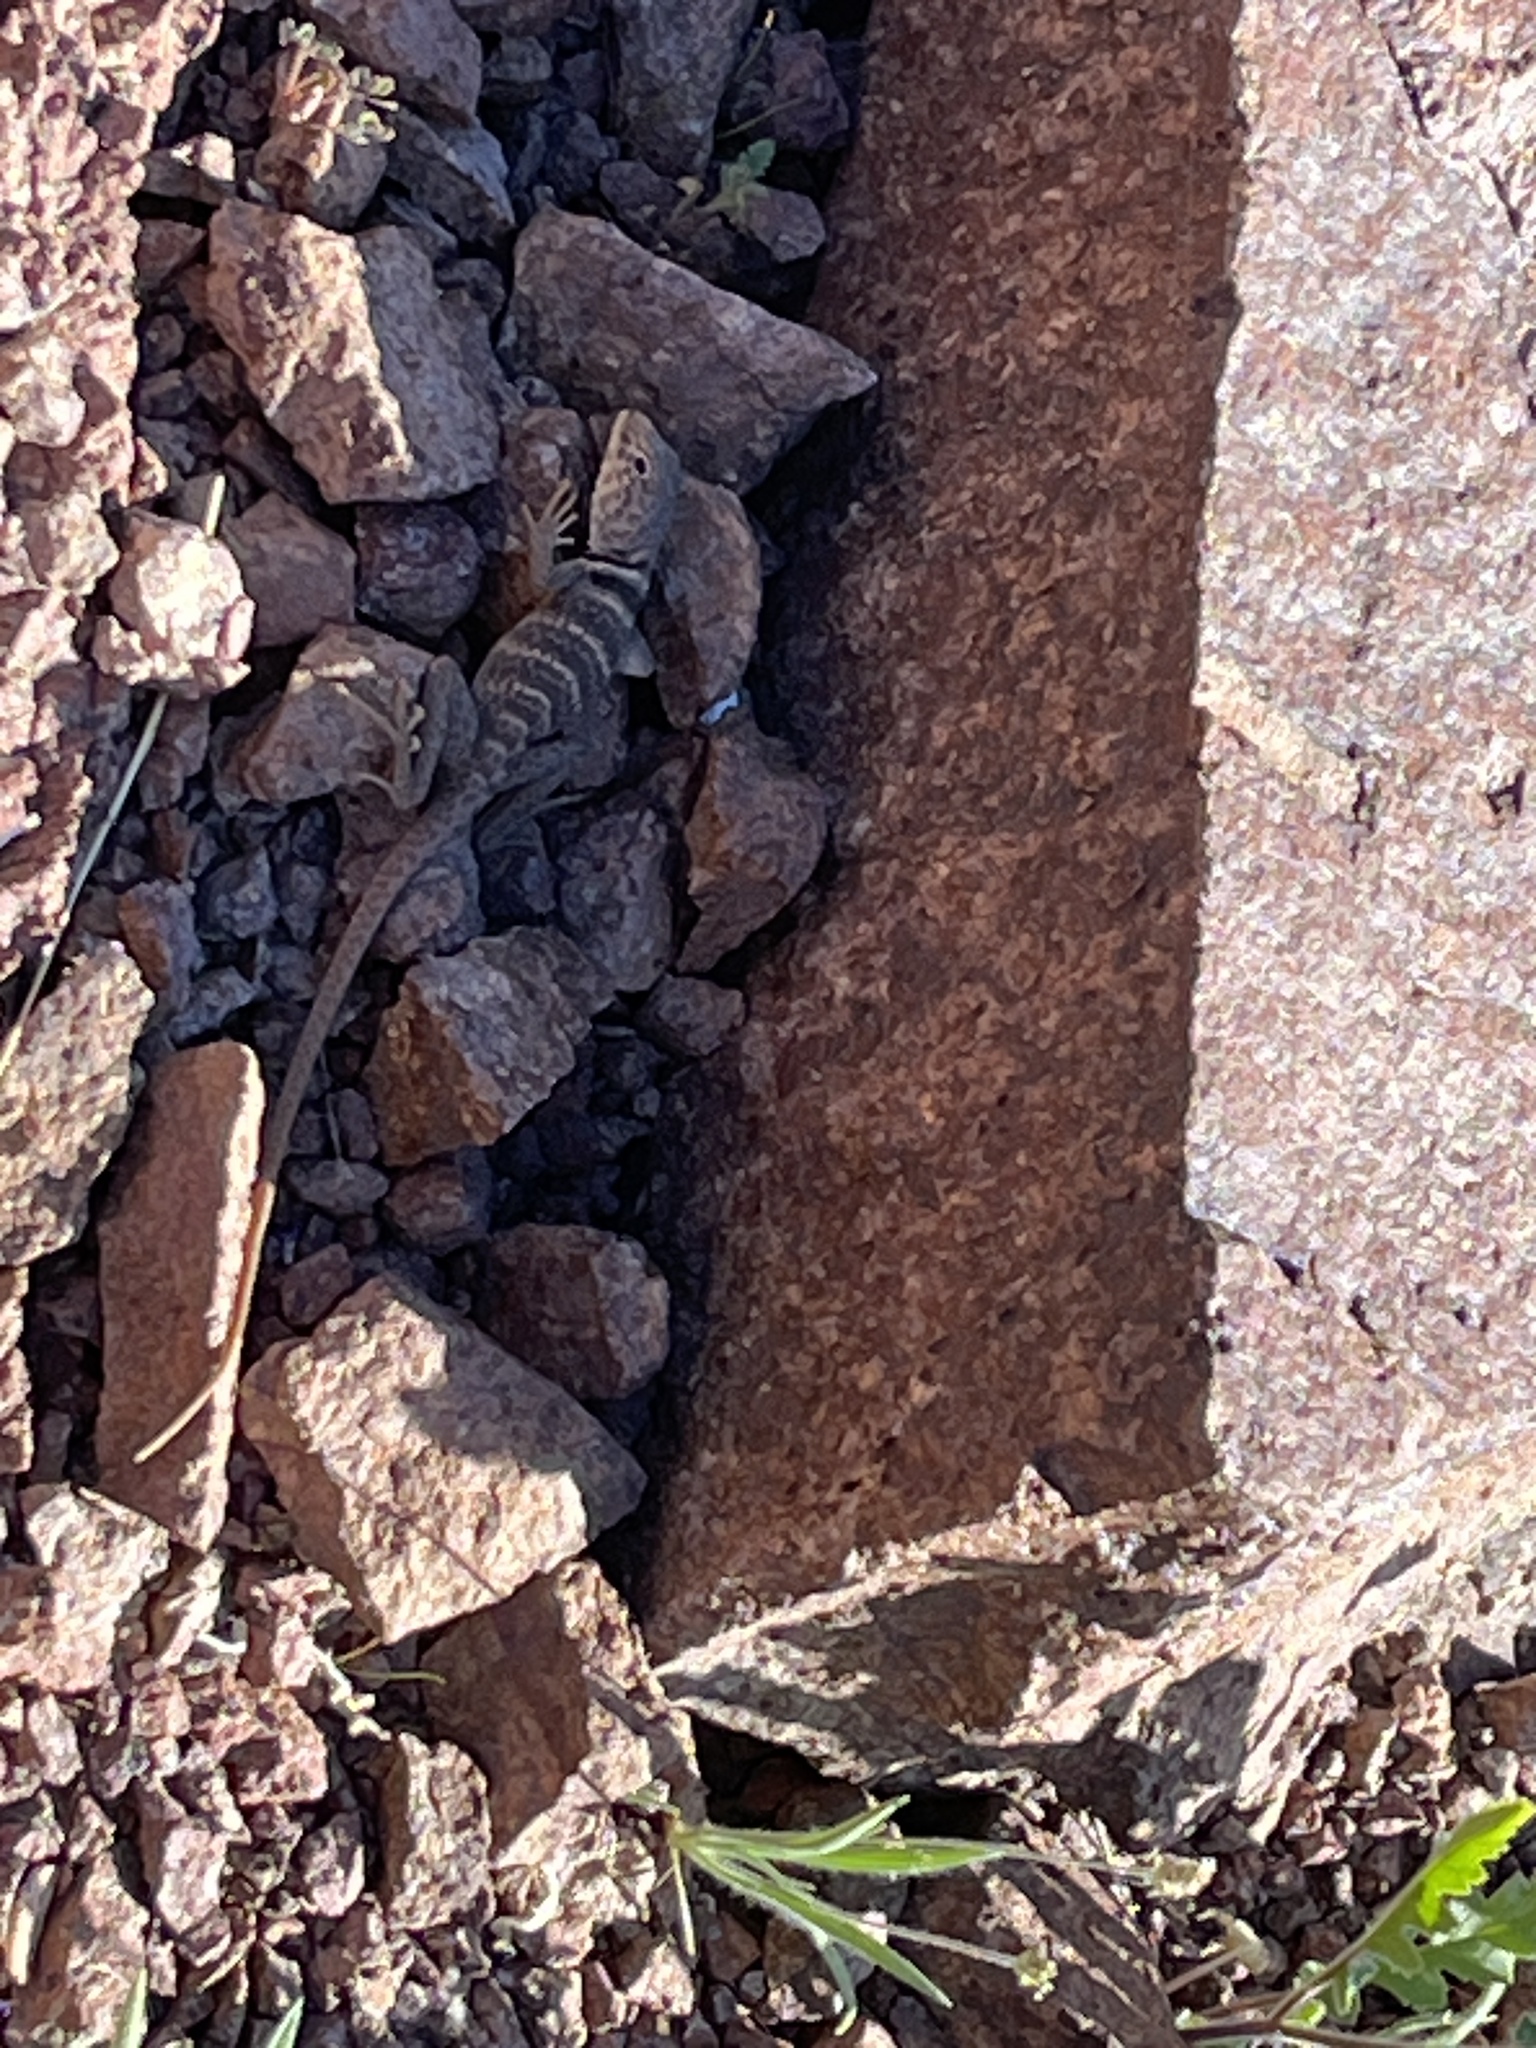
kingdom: Animalia
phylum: Chordata
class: Squamata
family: Crotaphytidae
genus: Crotaphytus
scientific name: Crotaphytus bicinctores
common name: Mojave black-collared lizard
